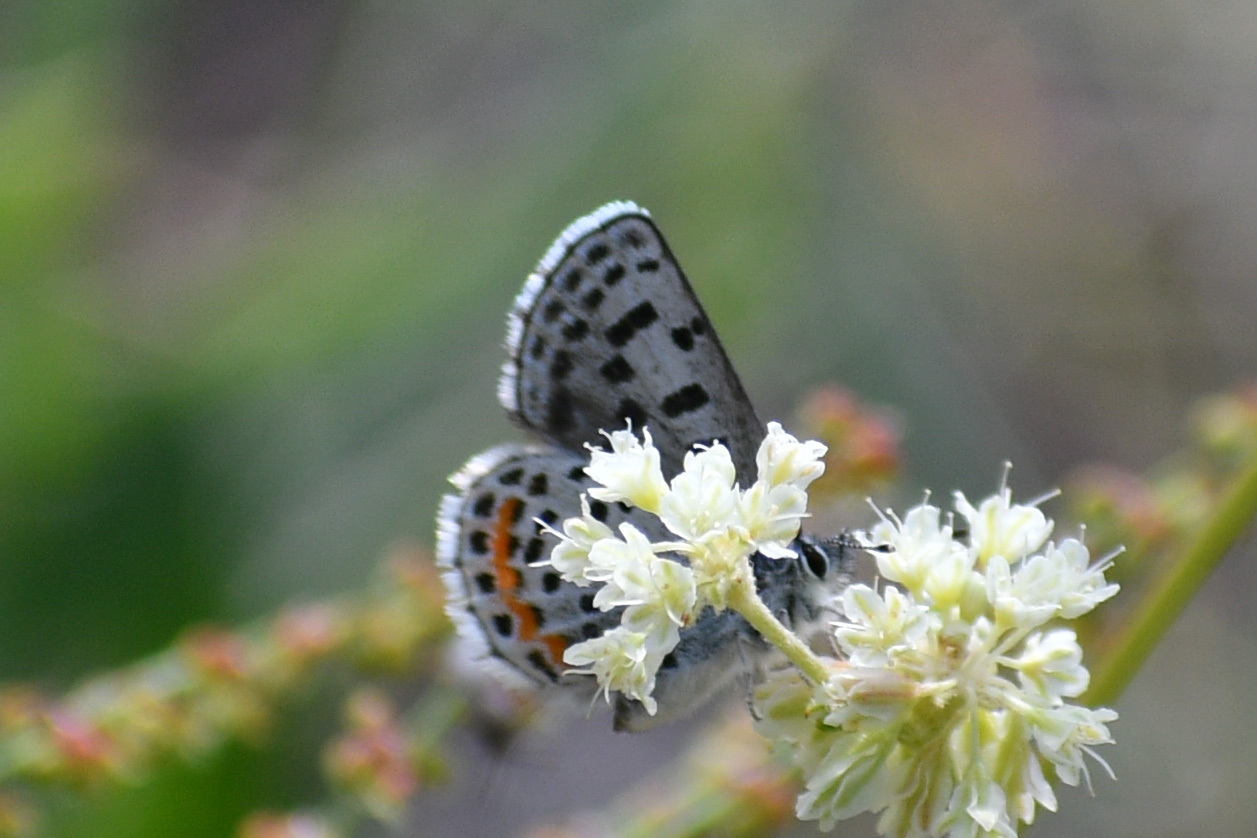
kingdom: Animalia
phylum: Arthropoda
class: Insecta
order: Lepidoptera
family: Lycaenidae
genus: Euphilotes
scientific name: Euphilotes
